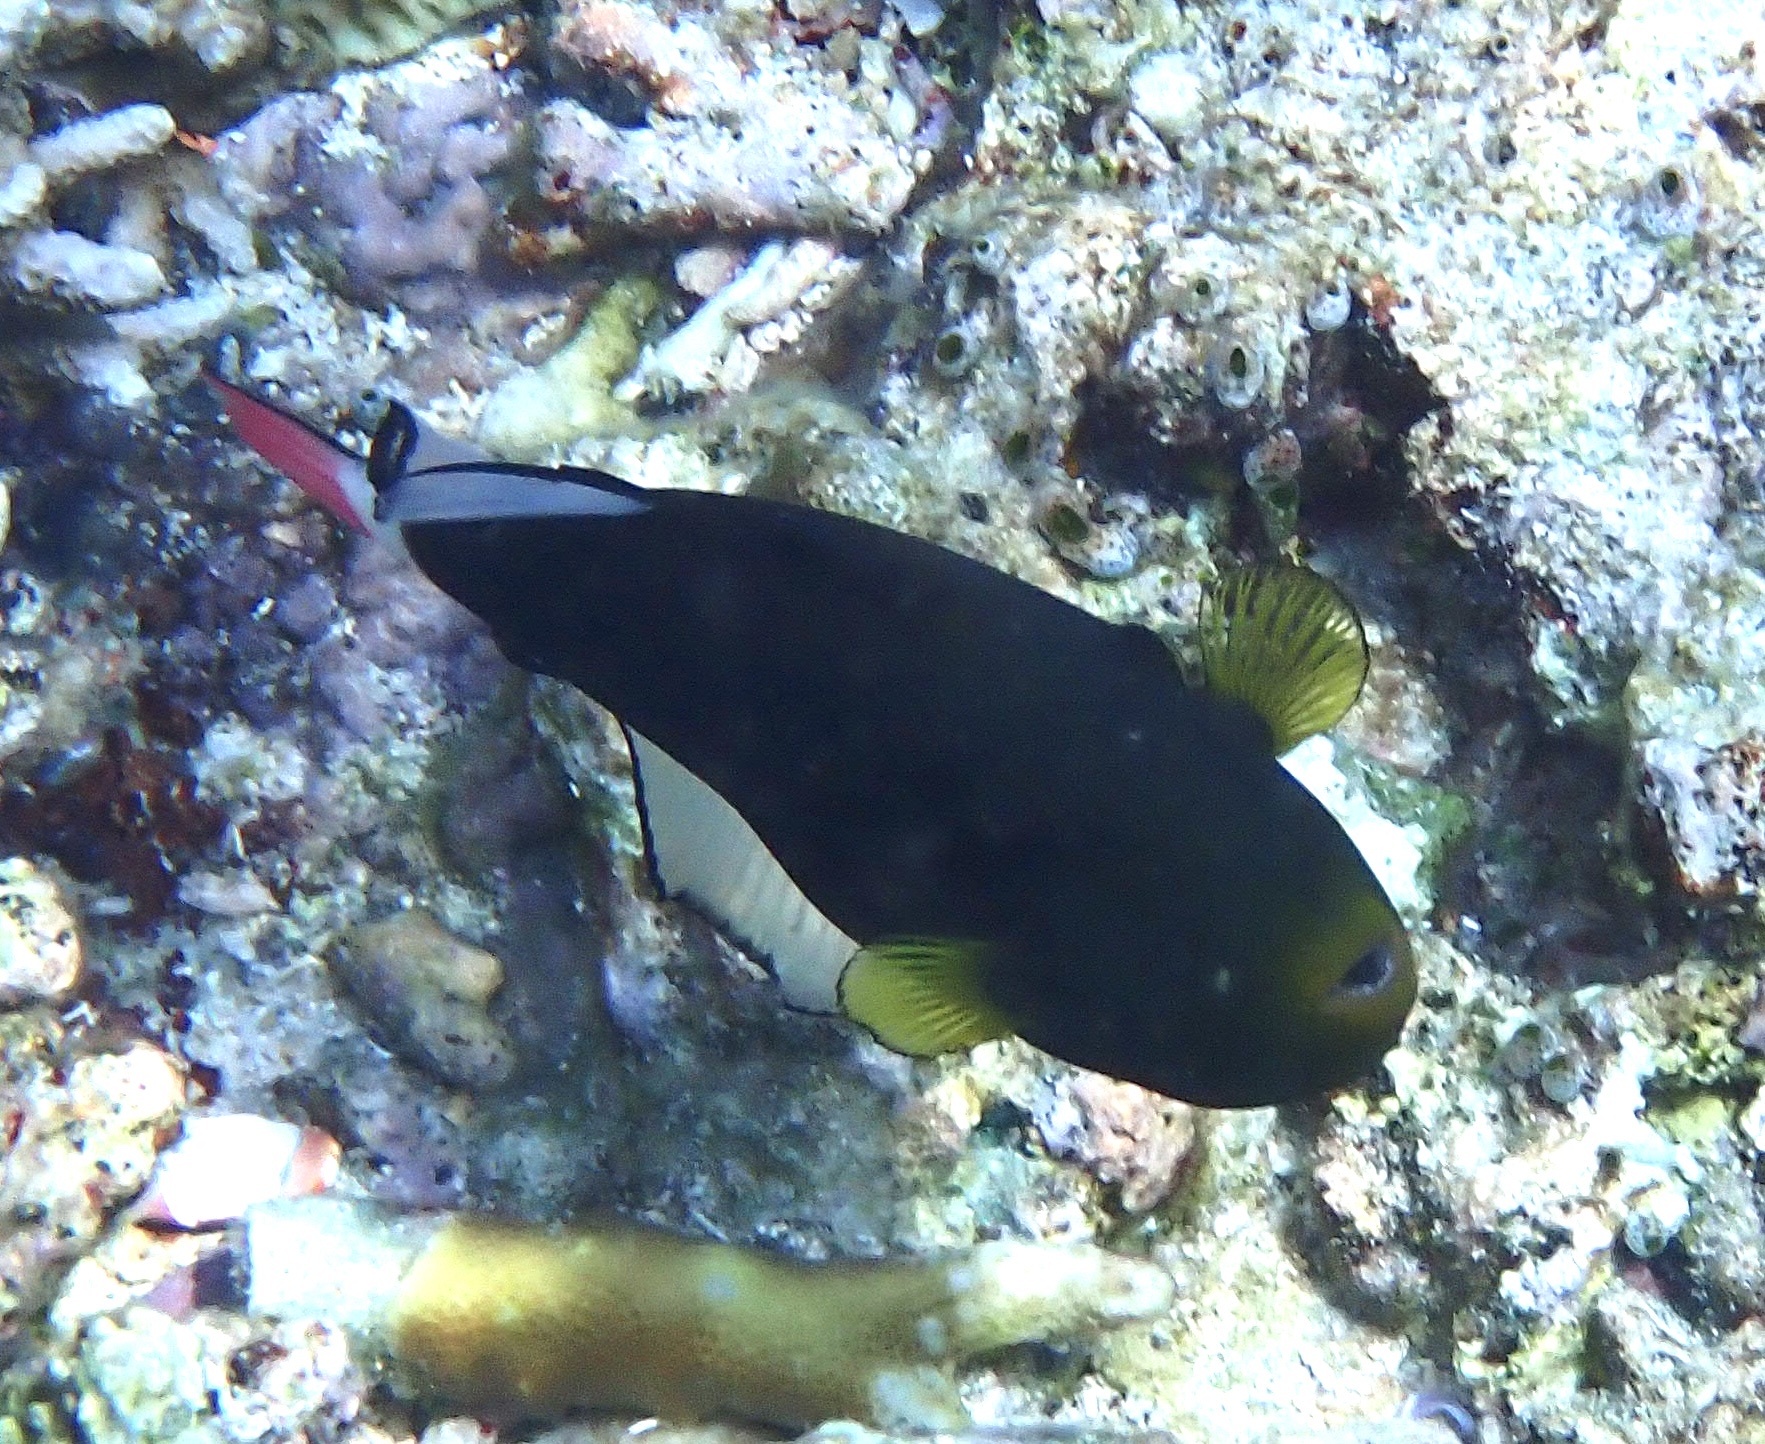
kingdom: Animalia
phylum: Chordata
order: Tetraodontiformes
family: Balistidae
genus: Melichthys
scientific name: Melichthys vidua
